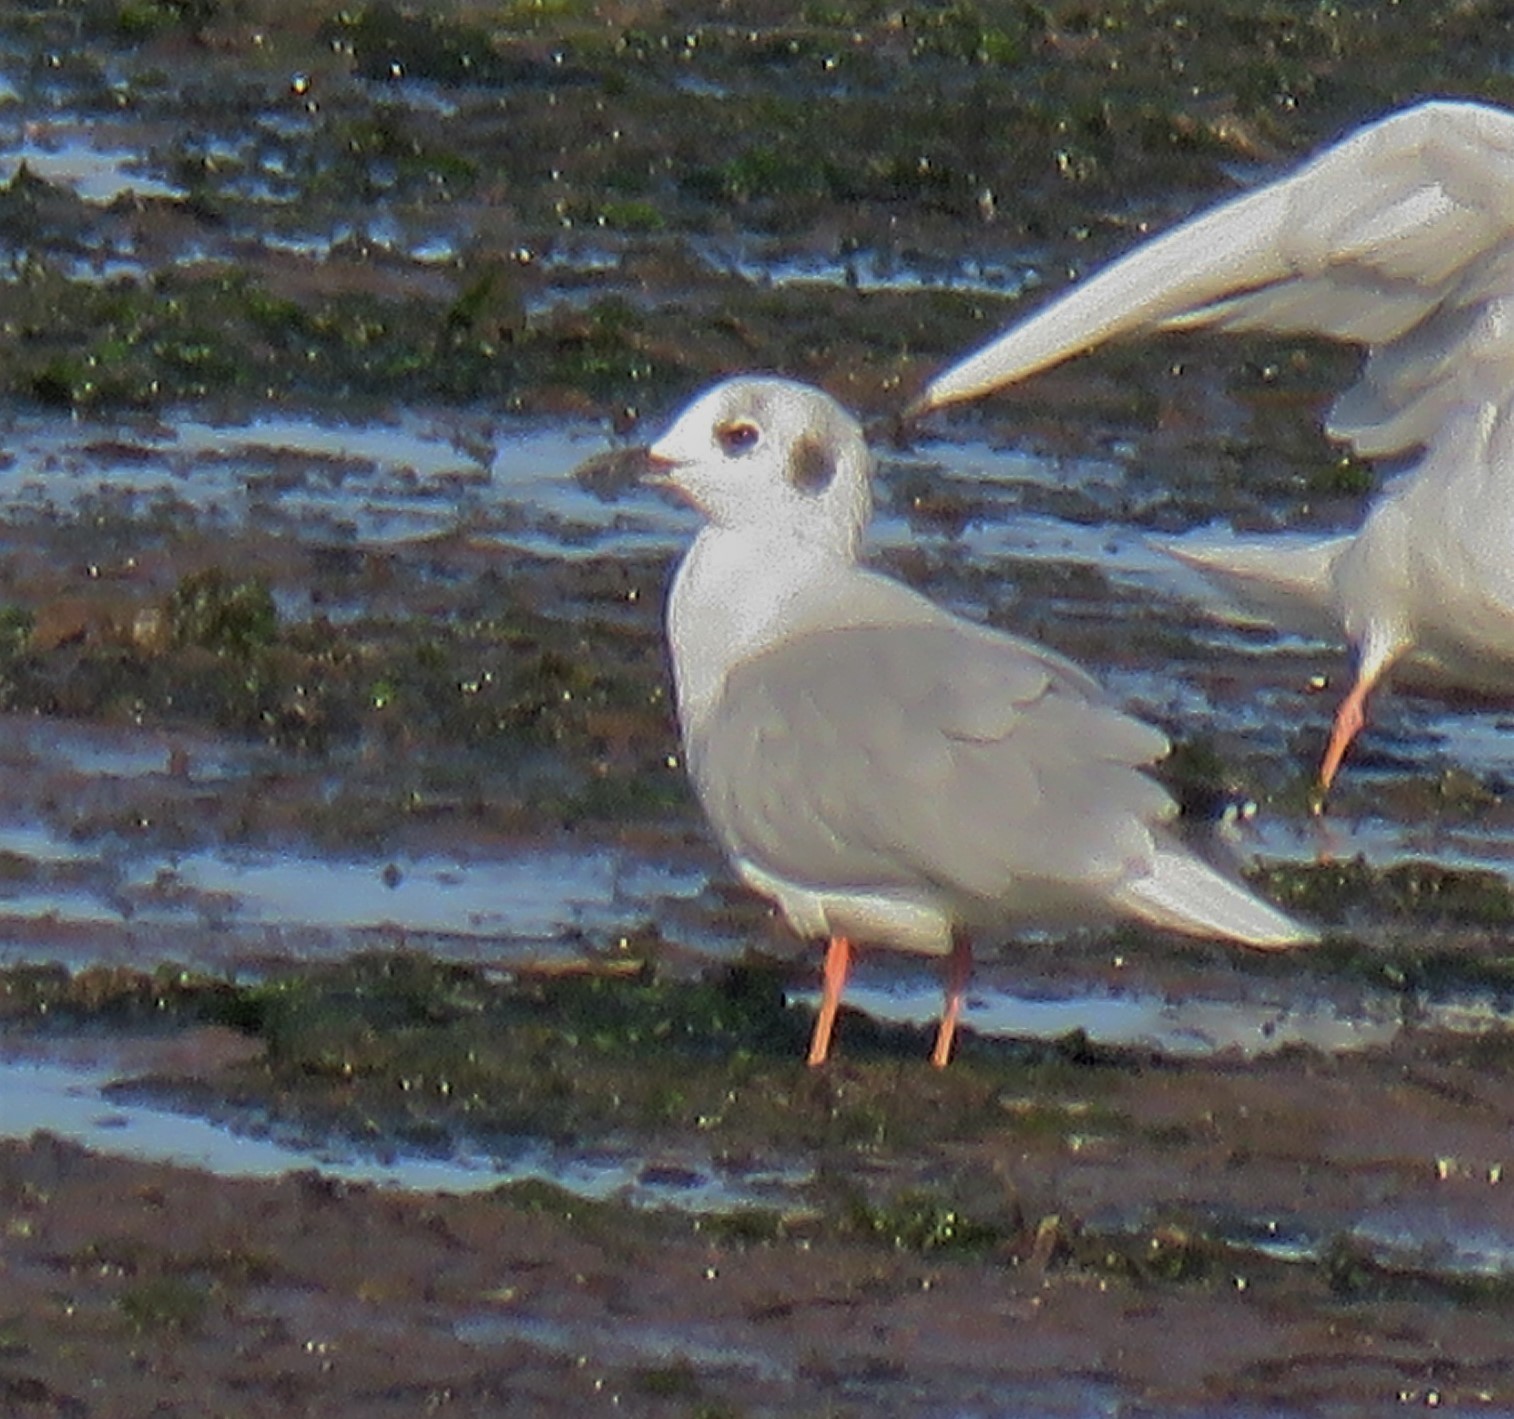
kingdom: Animalia
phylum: Chordata
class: Aves
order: Charadriiformes
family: Laridae
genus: Chroicocephalus
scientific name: Chroicocephalus philadelphia
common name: Bonaparte's gull
